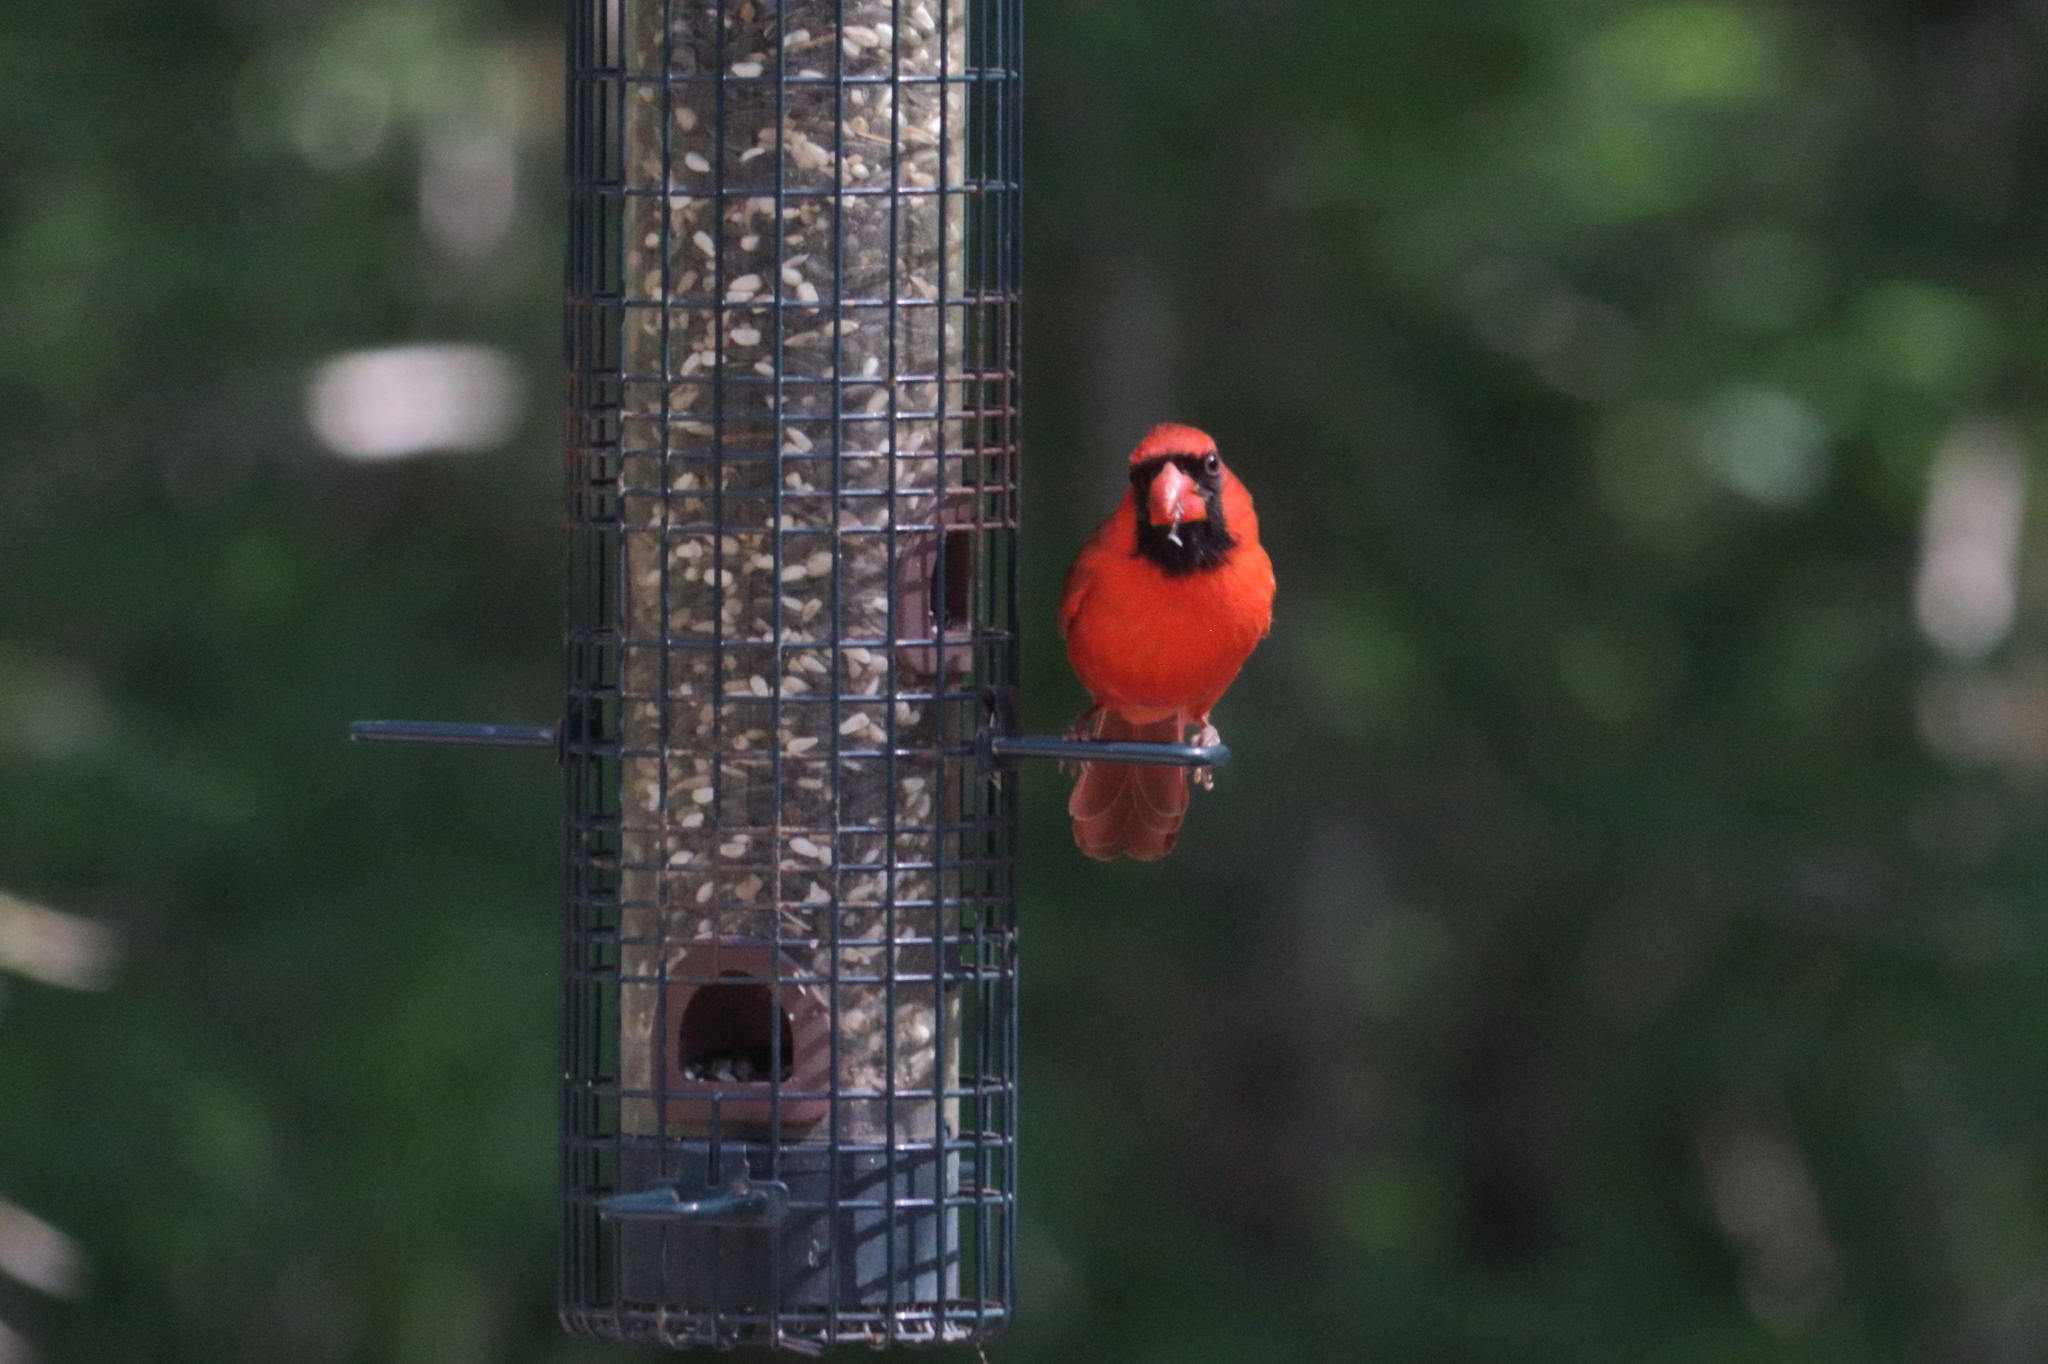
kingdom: Animalia
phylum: Chordata
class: Aves
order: Passeriformes
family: Cardinalidae
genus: Cardinalis
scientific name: Cardinalis cardinalis
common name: Northern cardinal
